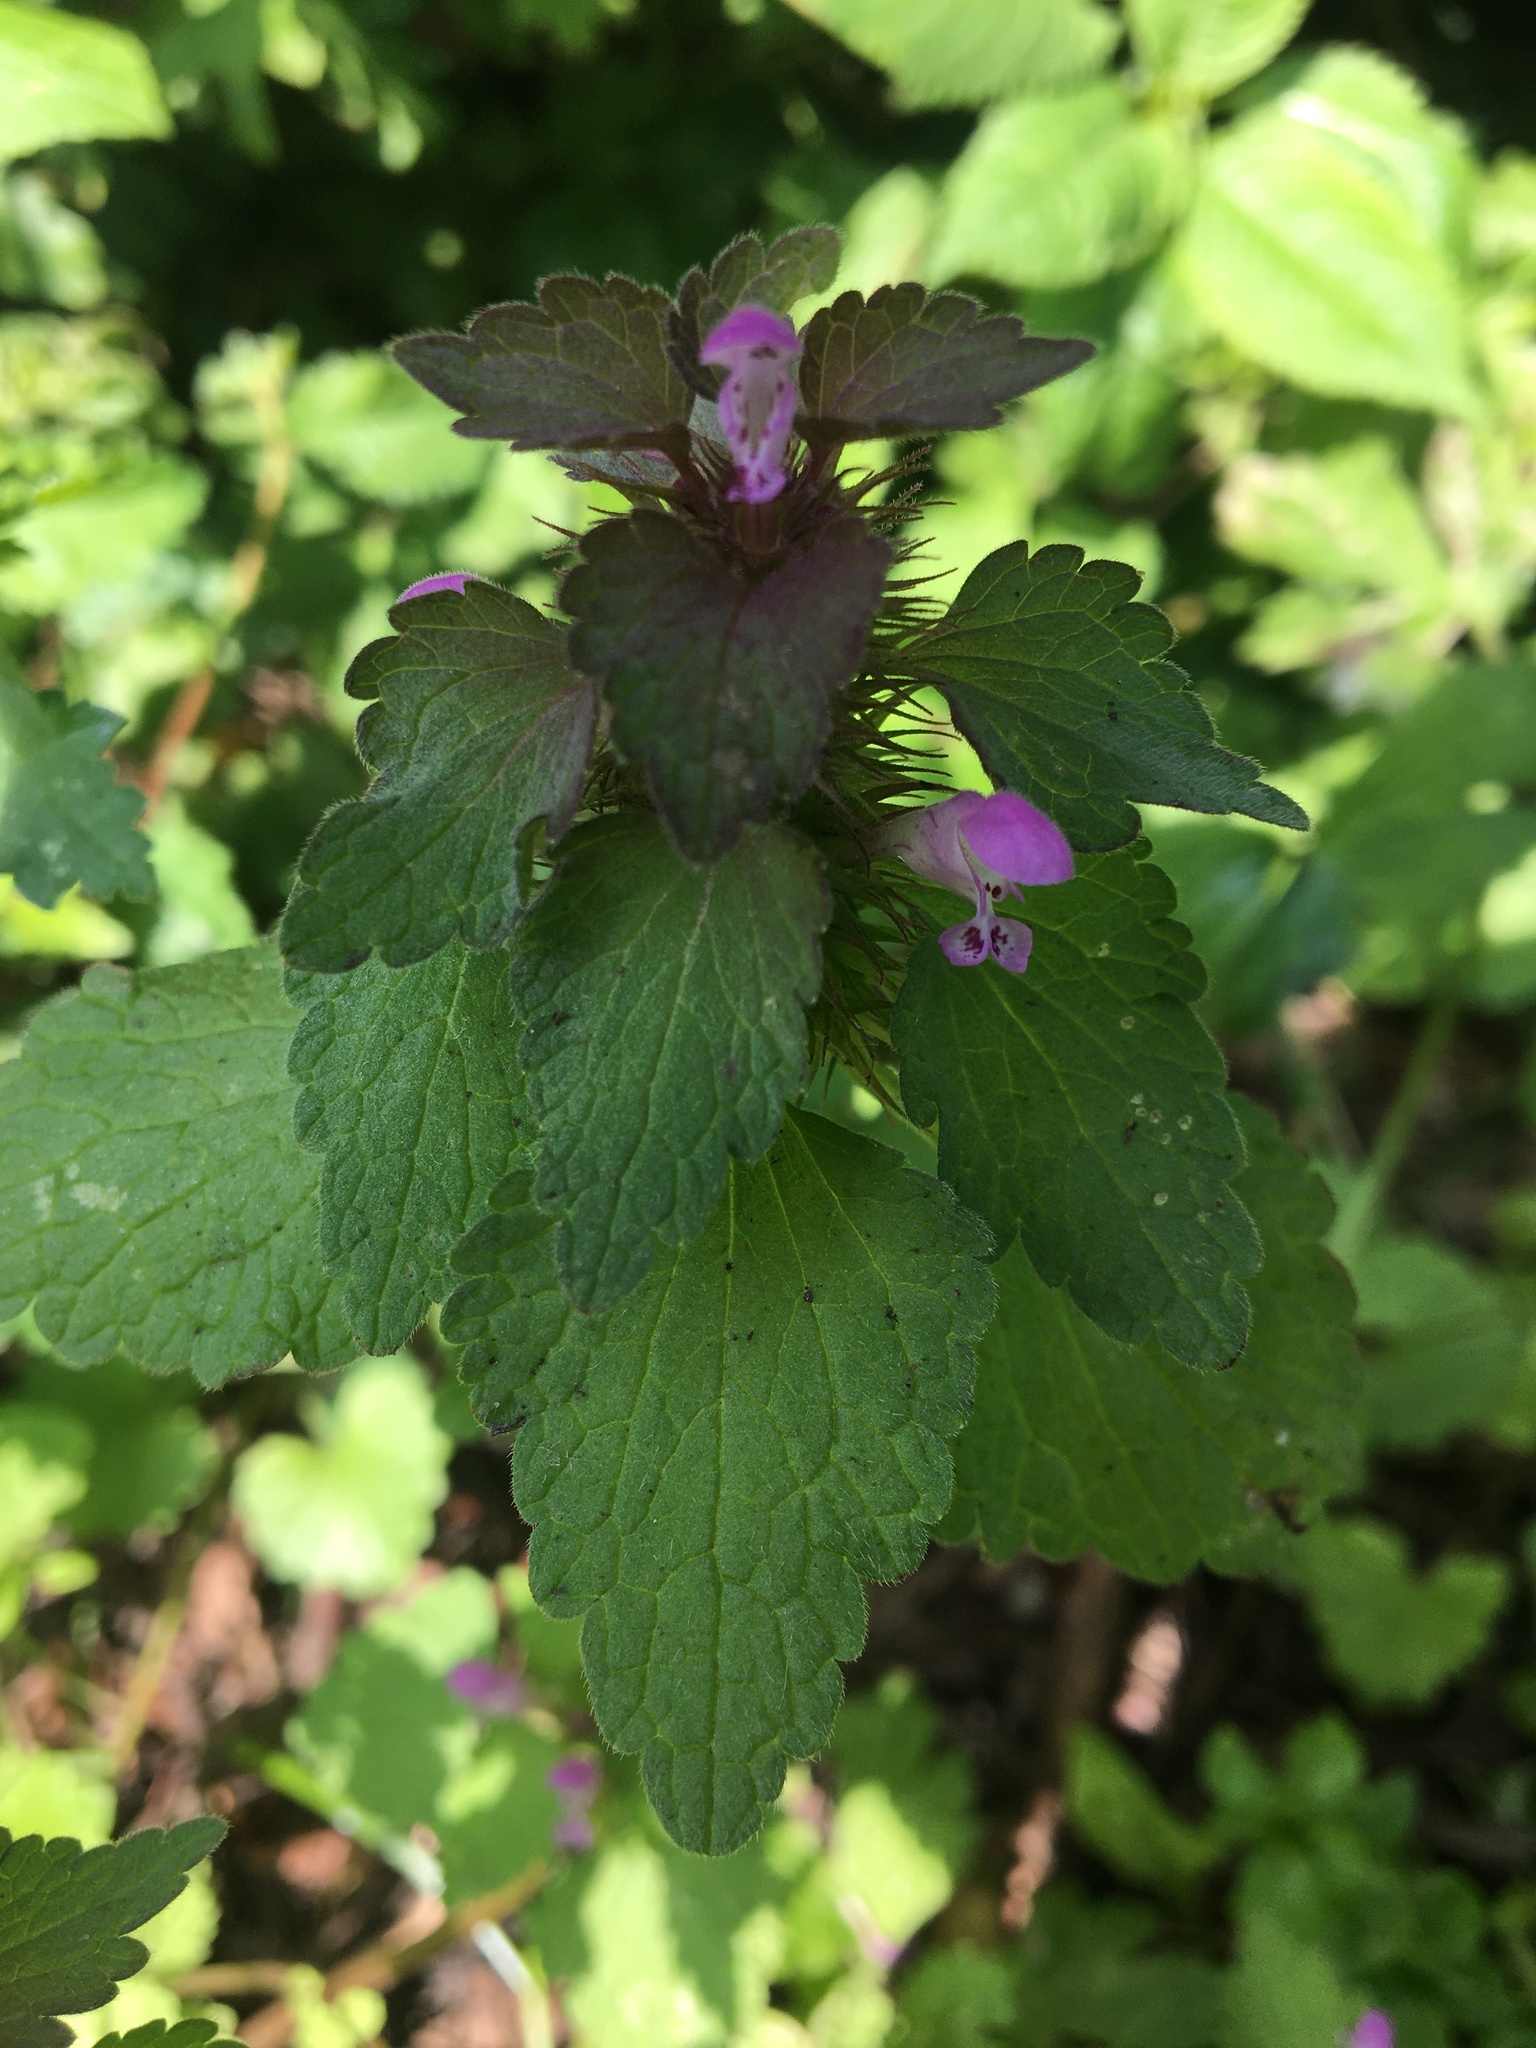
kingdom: Plantae
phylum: Tracheophyta
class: Magnoliopsida
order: Lamiales
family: Lamiaceae
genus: Lamium
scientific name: Lamium purpureum
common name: Red dead-nettle
